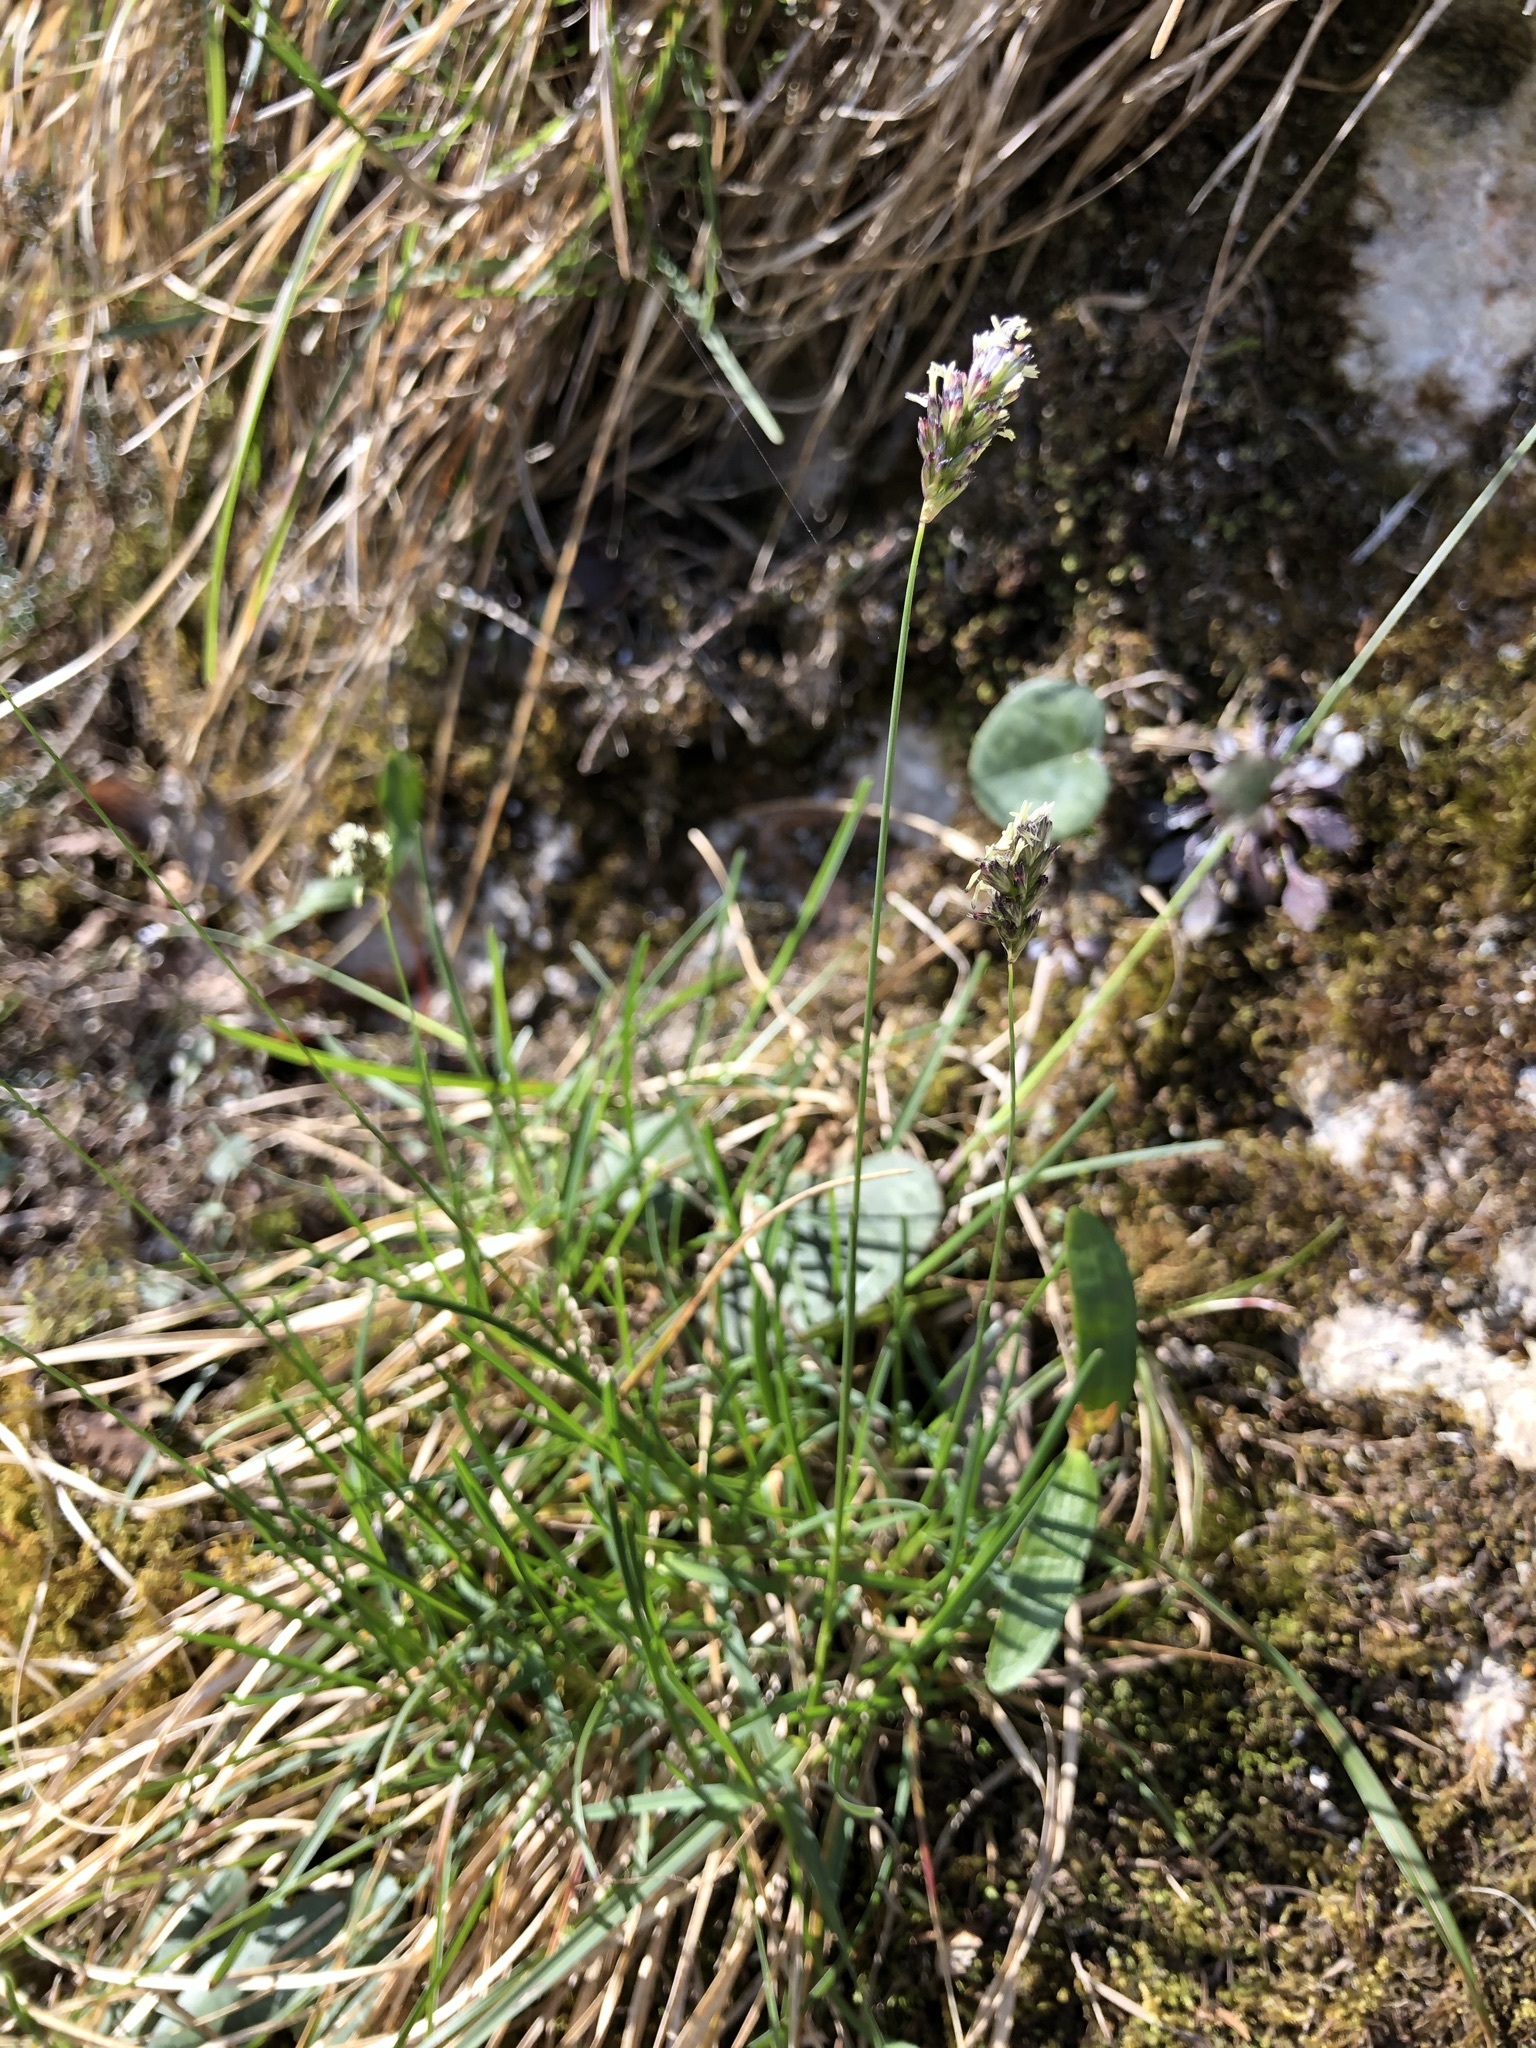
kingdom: Plantae
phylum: Tracheophyta
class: Liliopsida
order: Poales
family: Poaceae
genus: Sesleria
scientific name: Sesleria caerulea
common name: Blue moor-grass
